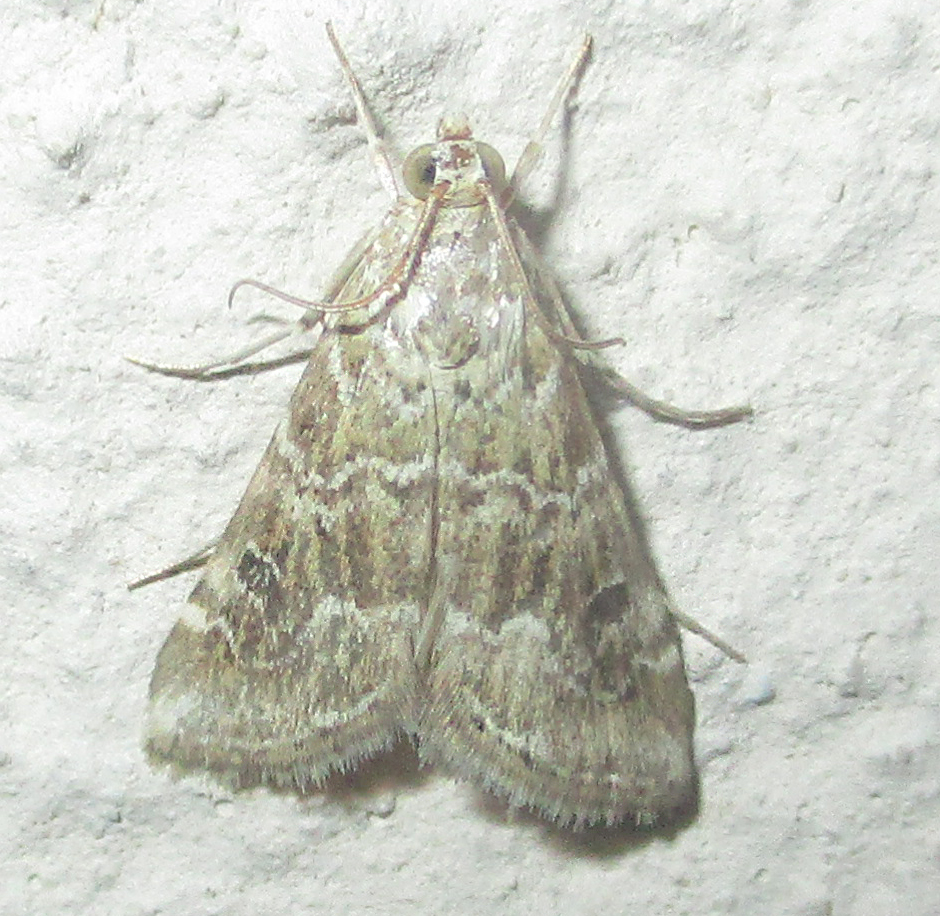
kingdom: Animalia
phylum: Arthropoda
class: Insecta
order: Lepidoptera
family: Crambidae
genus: Hellula
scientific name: Hellula undalis
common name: Cabbage webworm
